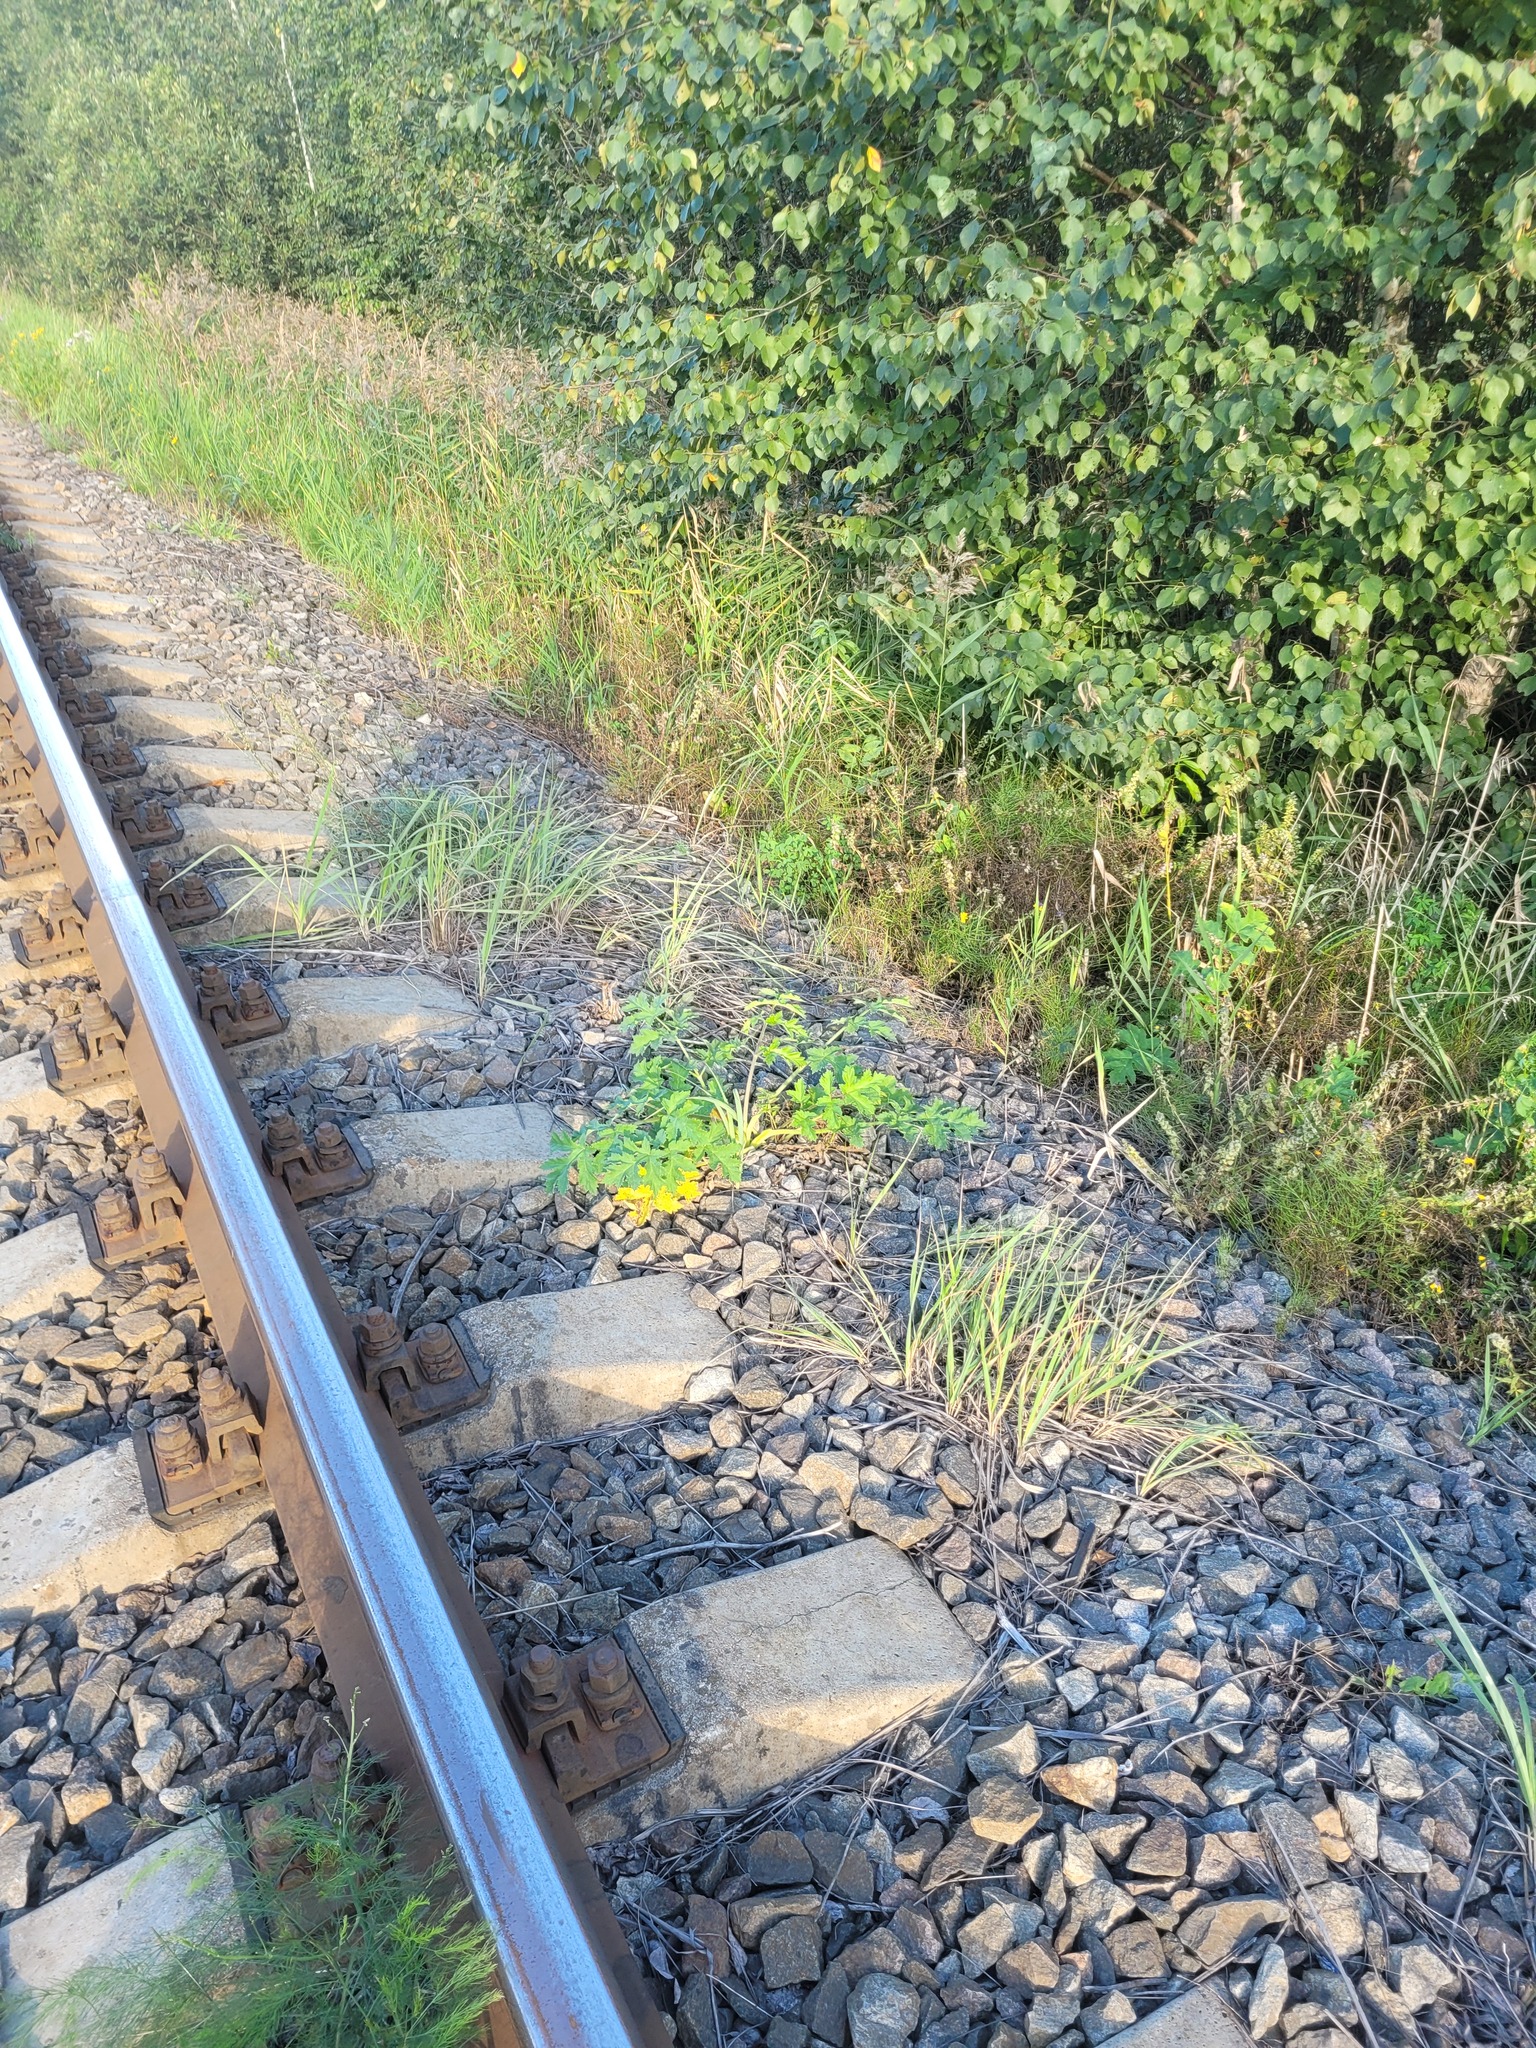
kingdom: Plantae
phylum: Tracheophyta
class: Magnoliopsida
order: Apiales
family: Apiaceae
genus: Heracleum
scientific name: Heracleum sphondylium
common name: Hogweed
